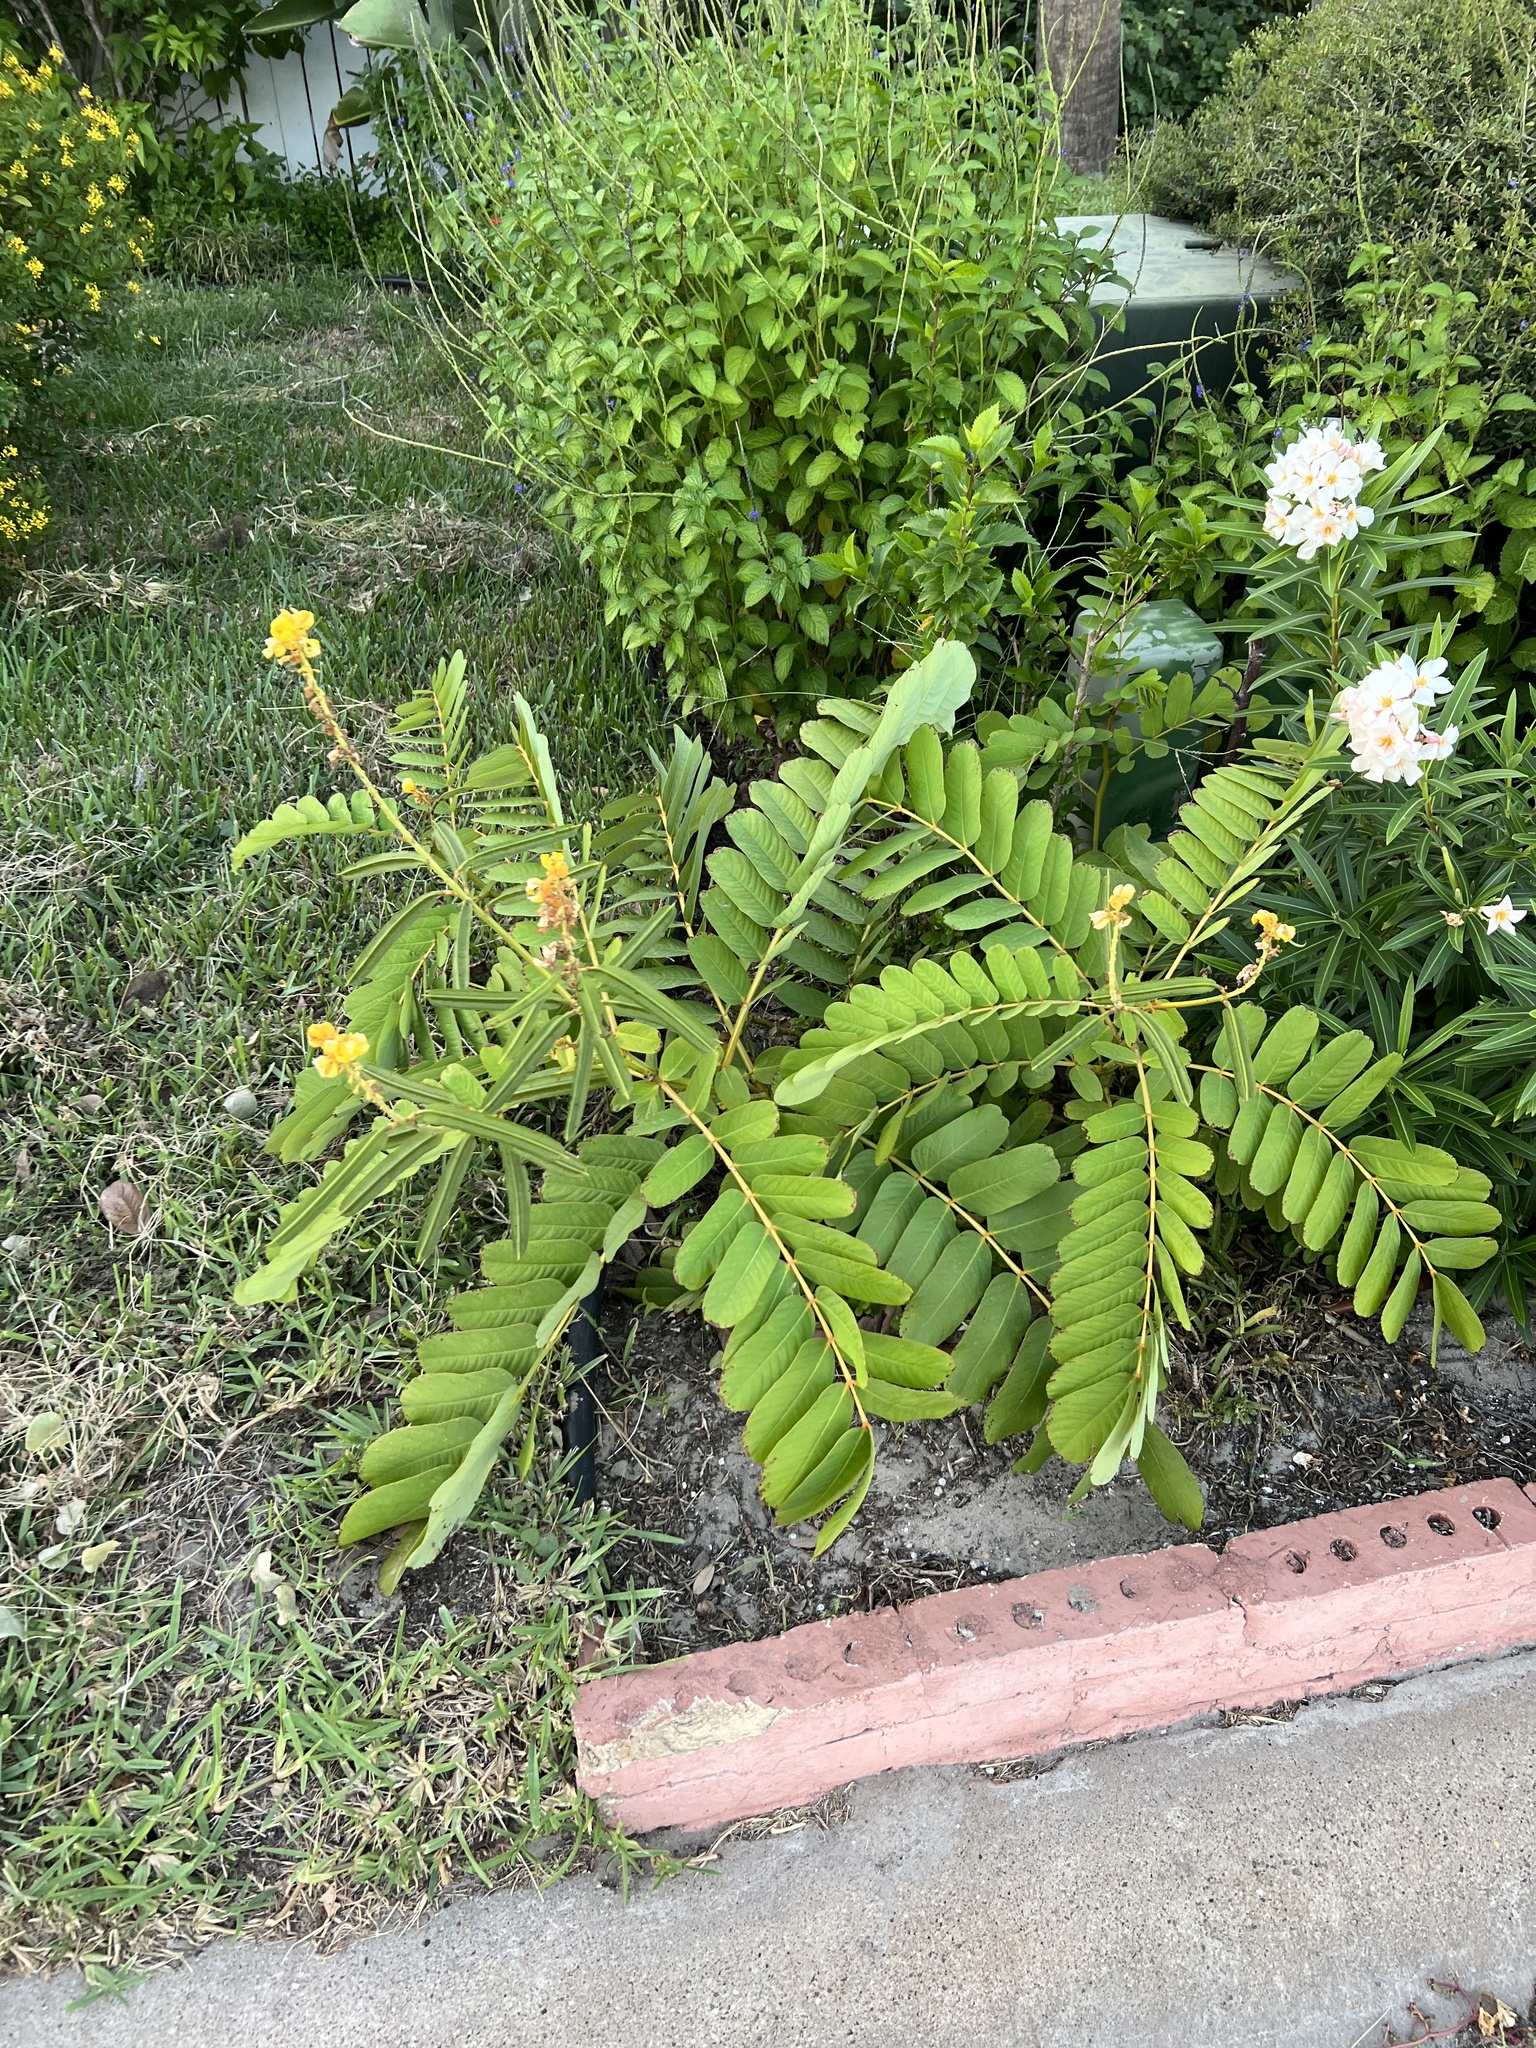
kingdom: Plantae
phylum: Tracheophyta
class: Magnoliopsida
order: Fabales
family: Fabaceae
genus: Senna
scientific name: Senna alata
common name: Emperor's candlesticks
